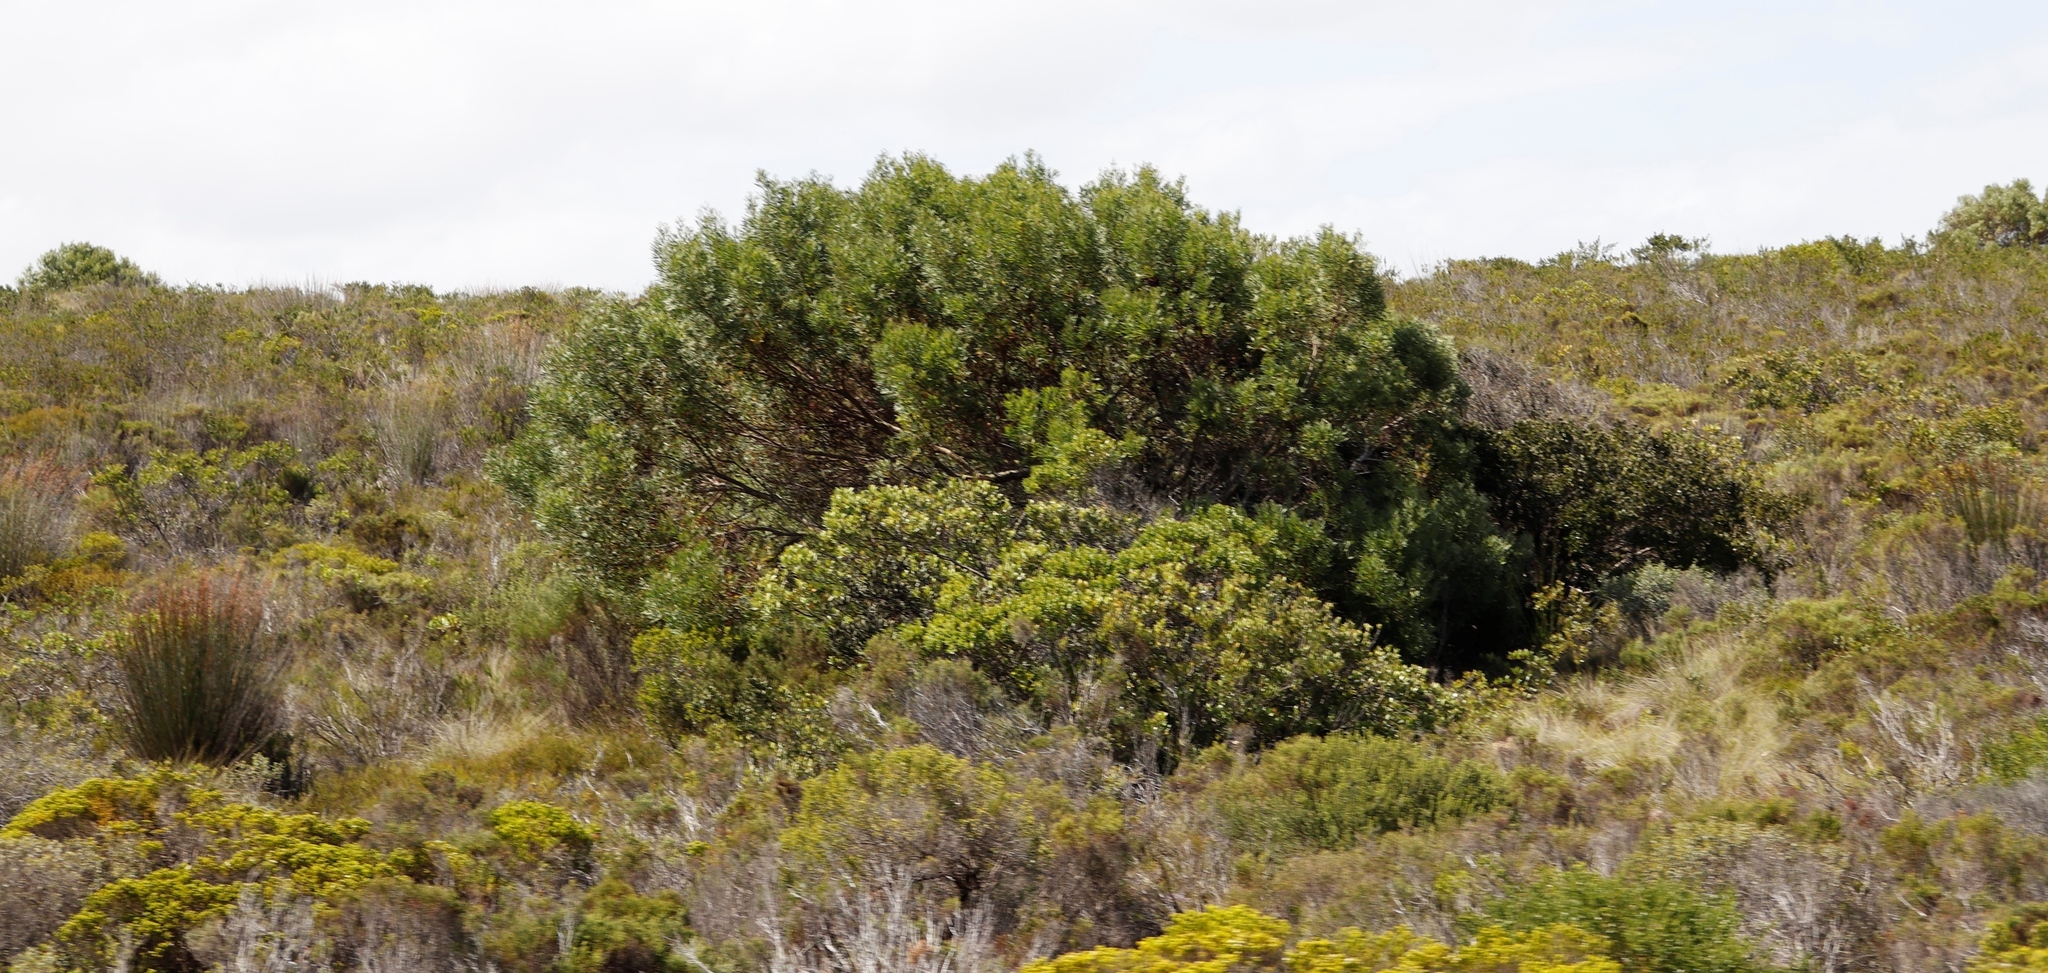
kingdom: Plantae
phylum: Tracheophyta
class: Magnoliopsida
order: Fabales
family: Fabaceae
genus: Acacia
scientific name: Acacia cyclops
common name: Coastal wattle
